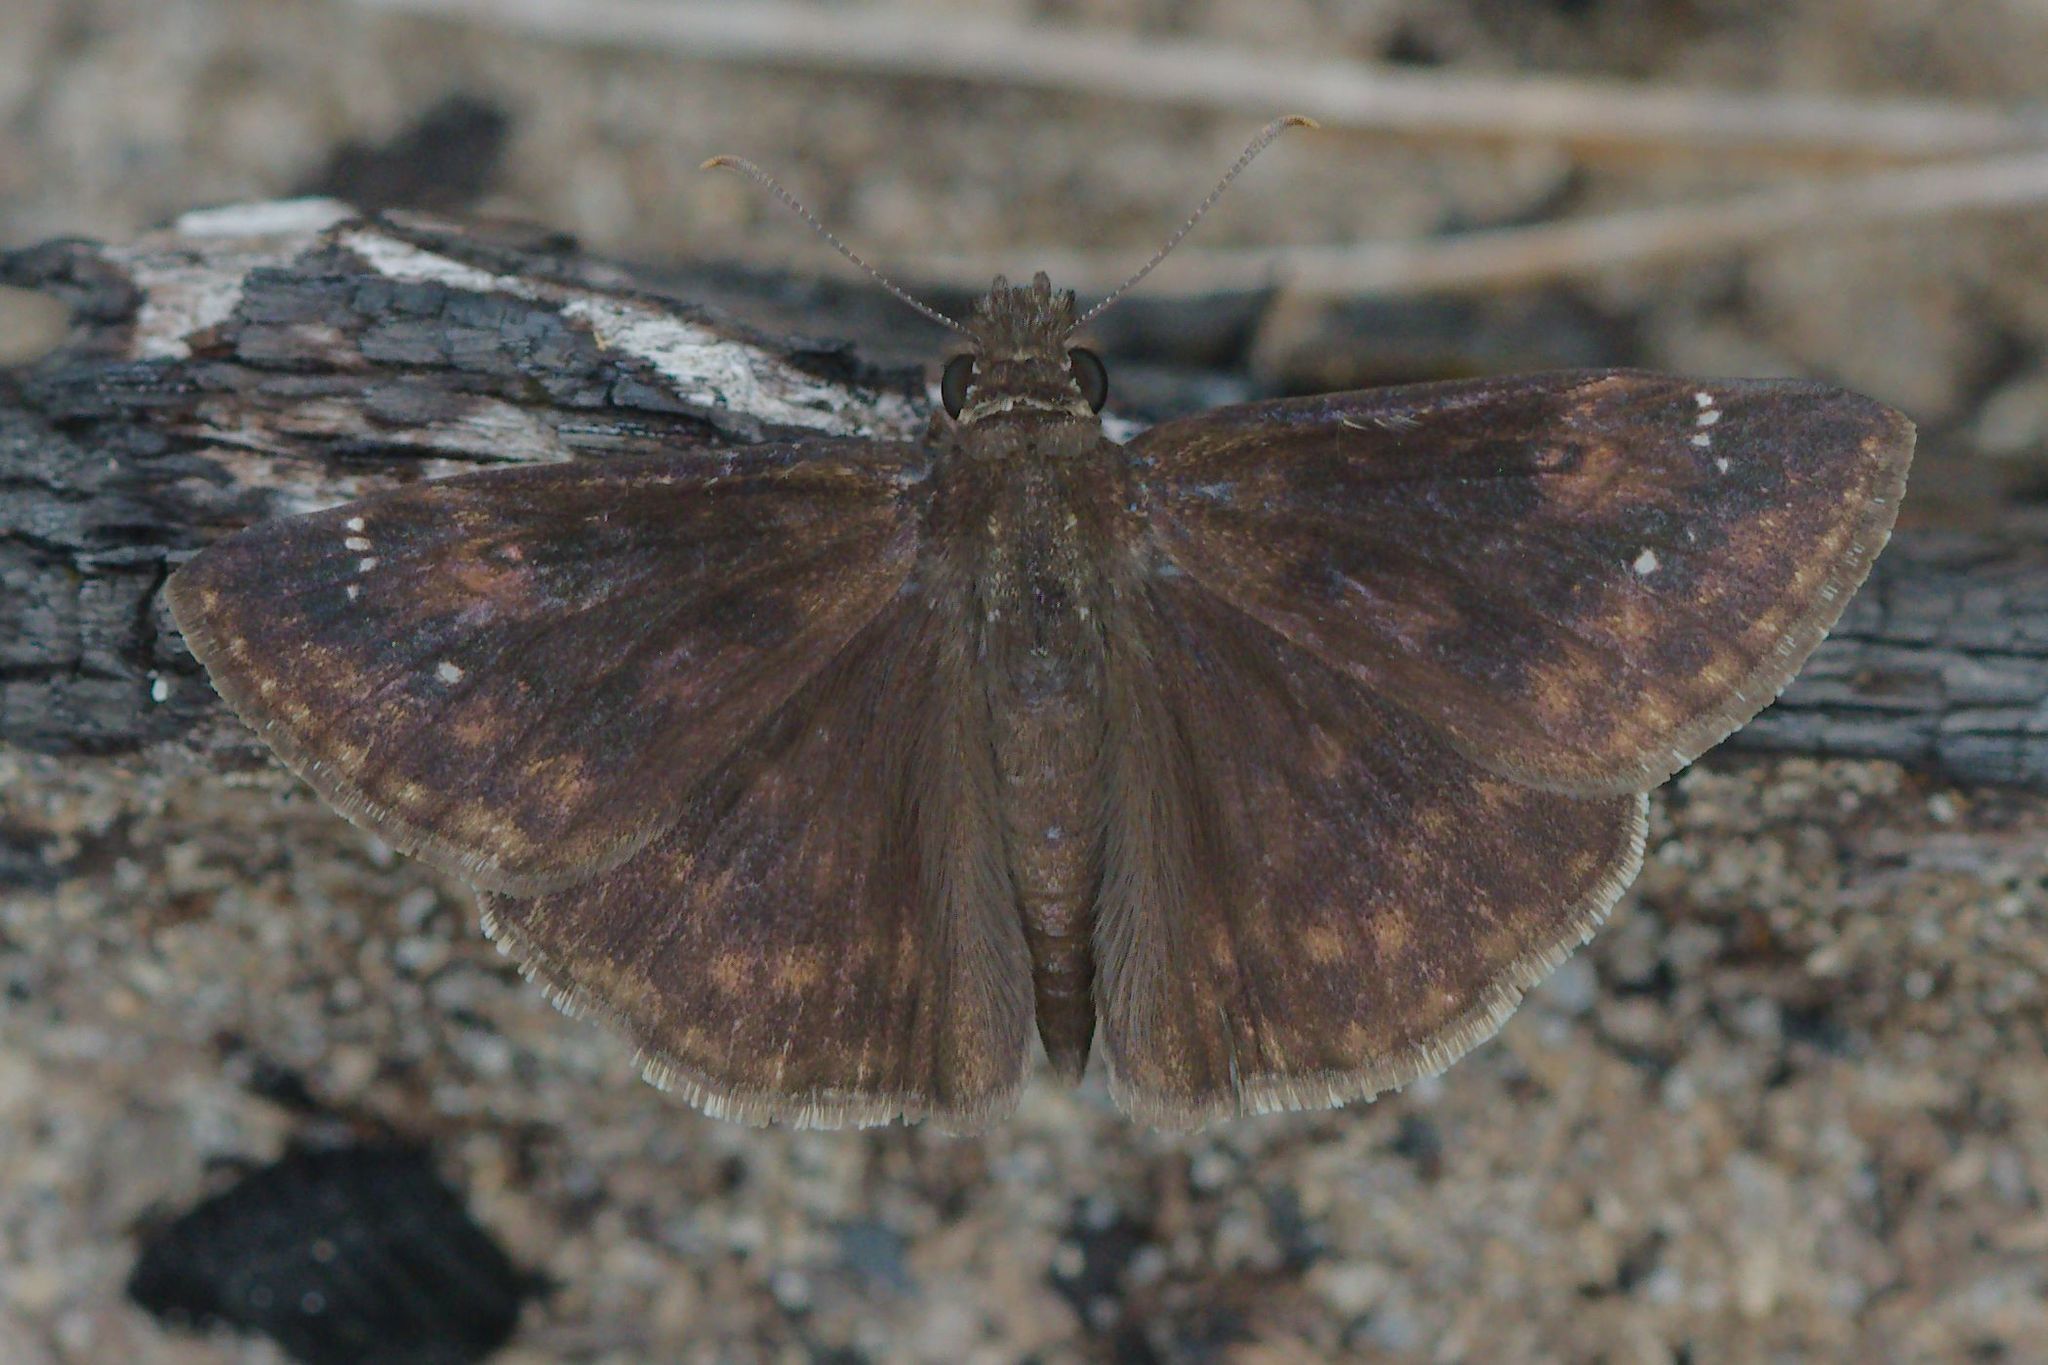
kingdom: Animalia
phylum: Arthropoda
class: Insecta
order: Lepidoptera
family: Hesperiidae
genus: Erynnis
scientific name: Erynnis zarucco
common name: Zarucco duskywing
